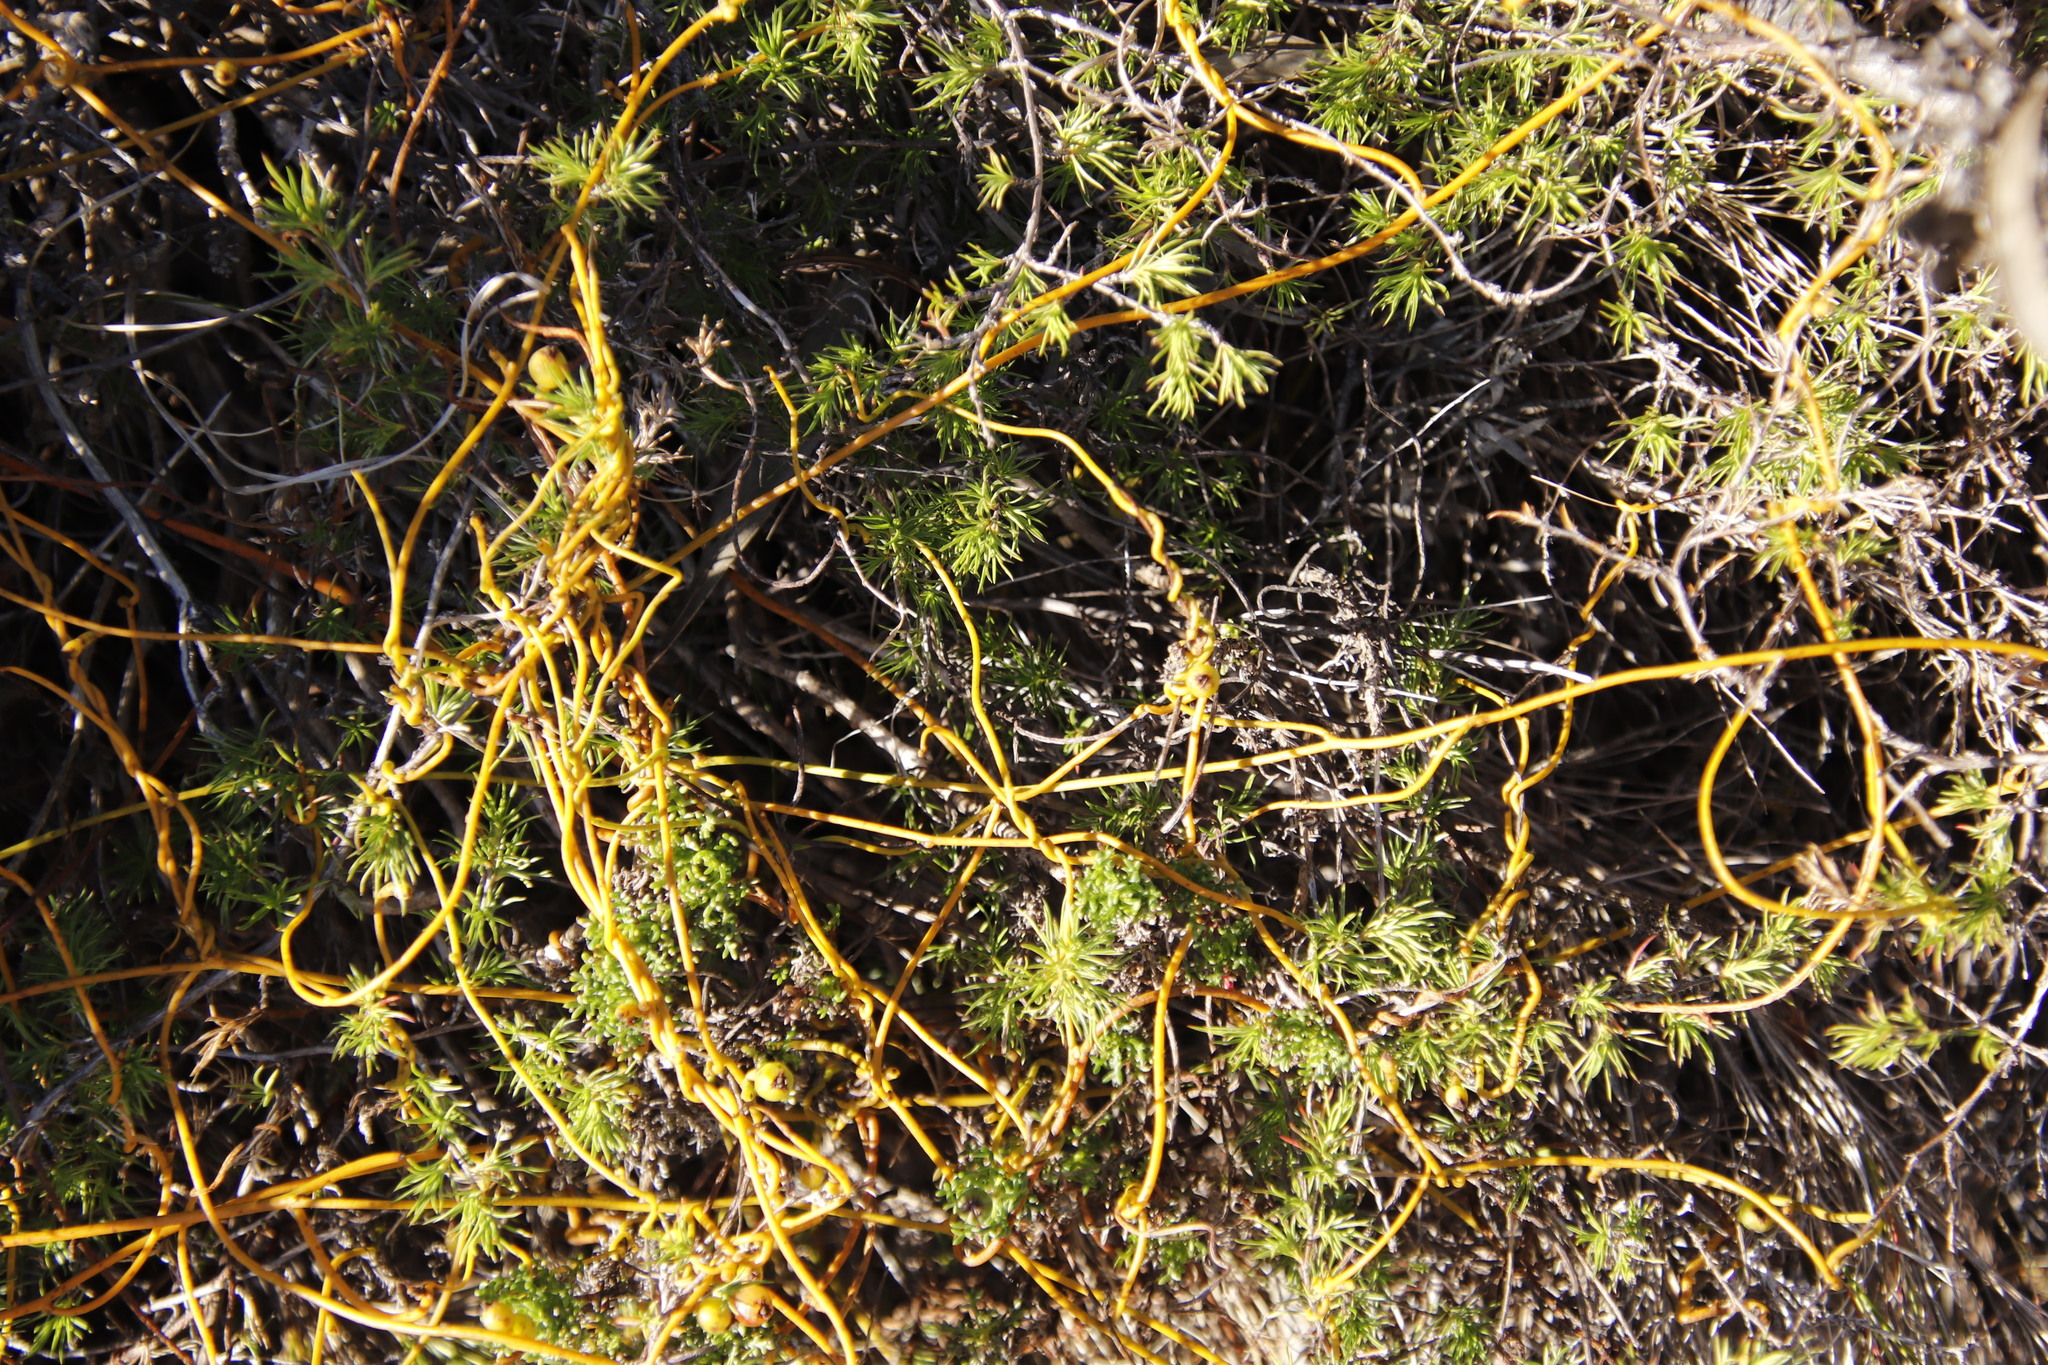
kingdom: Plantae
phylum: Tracheophyta
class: Magnoliopsida
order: Laurales
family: Lauraceae
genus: Cassytha
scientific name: Cassytha ciliolata
